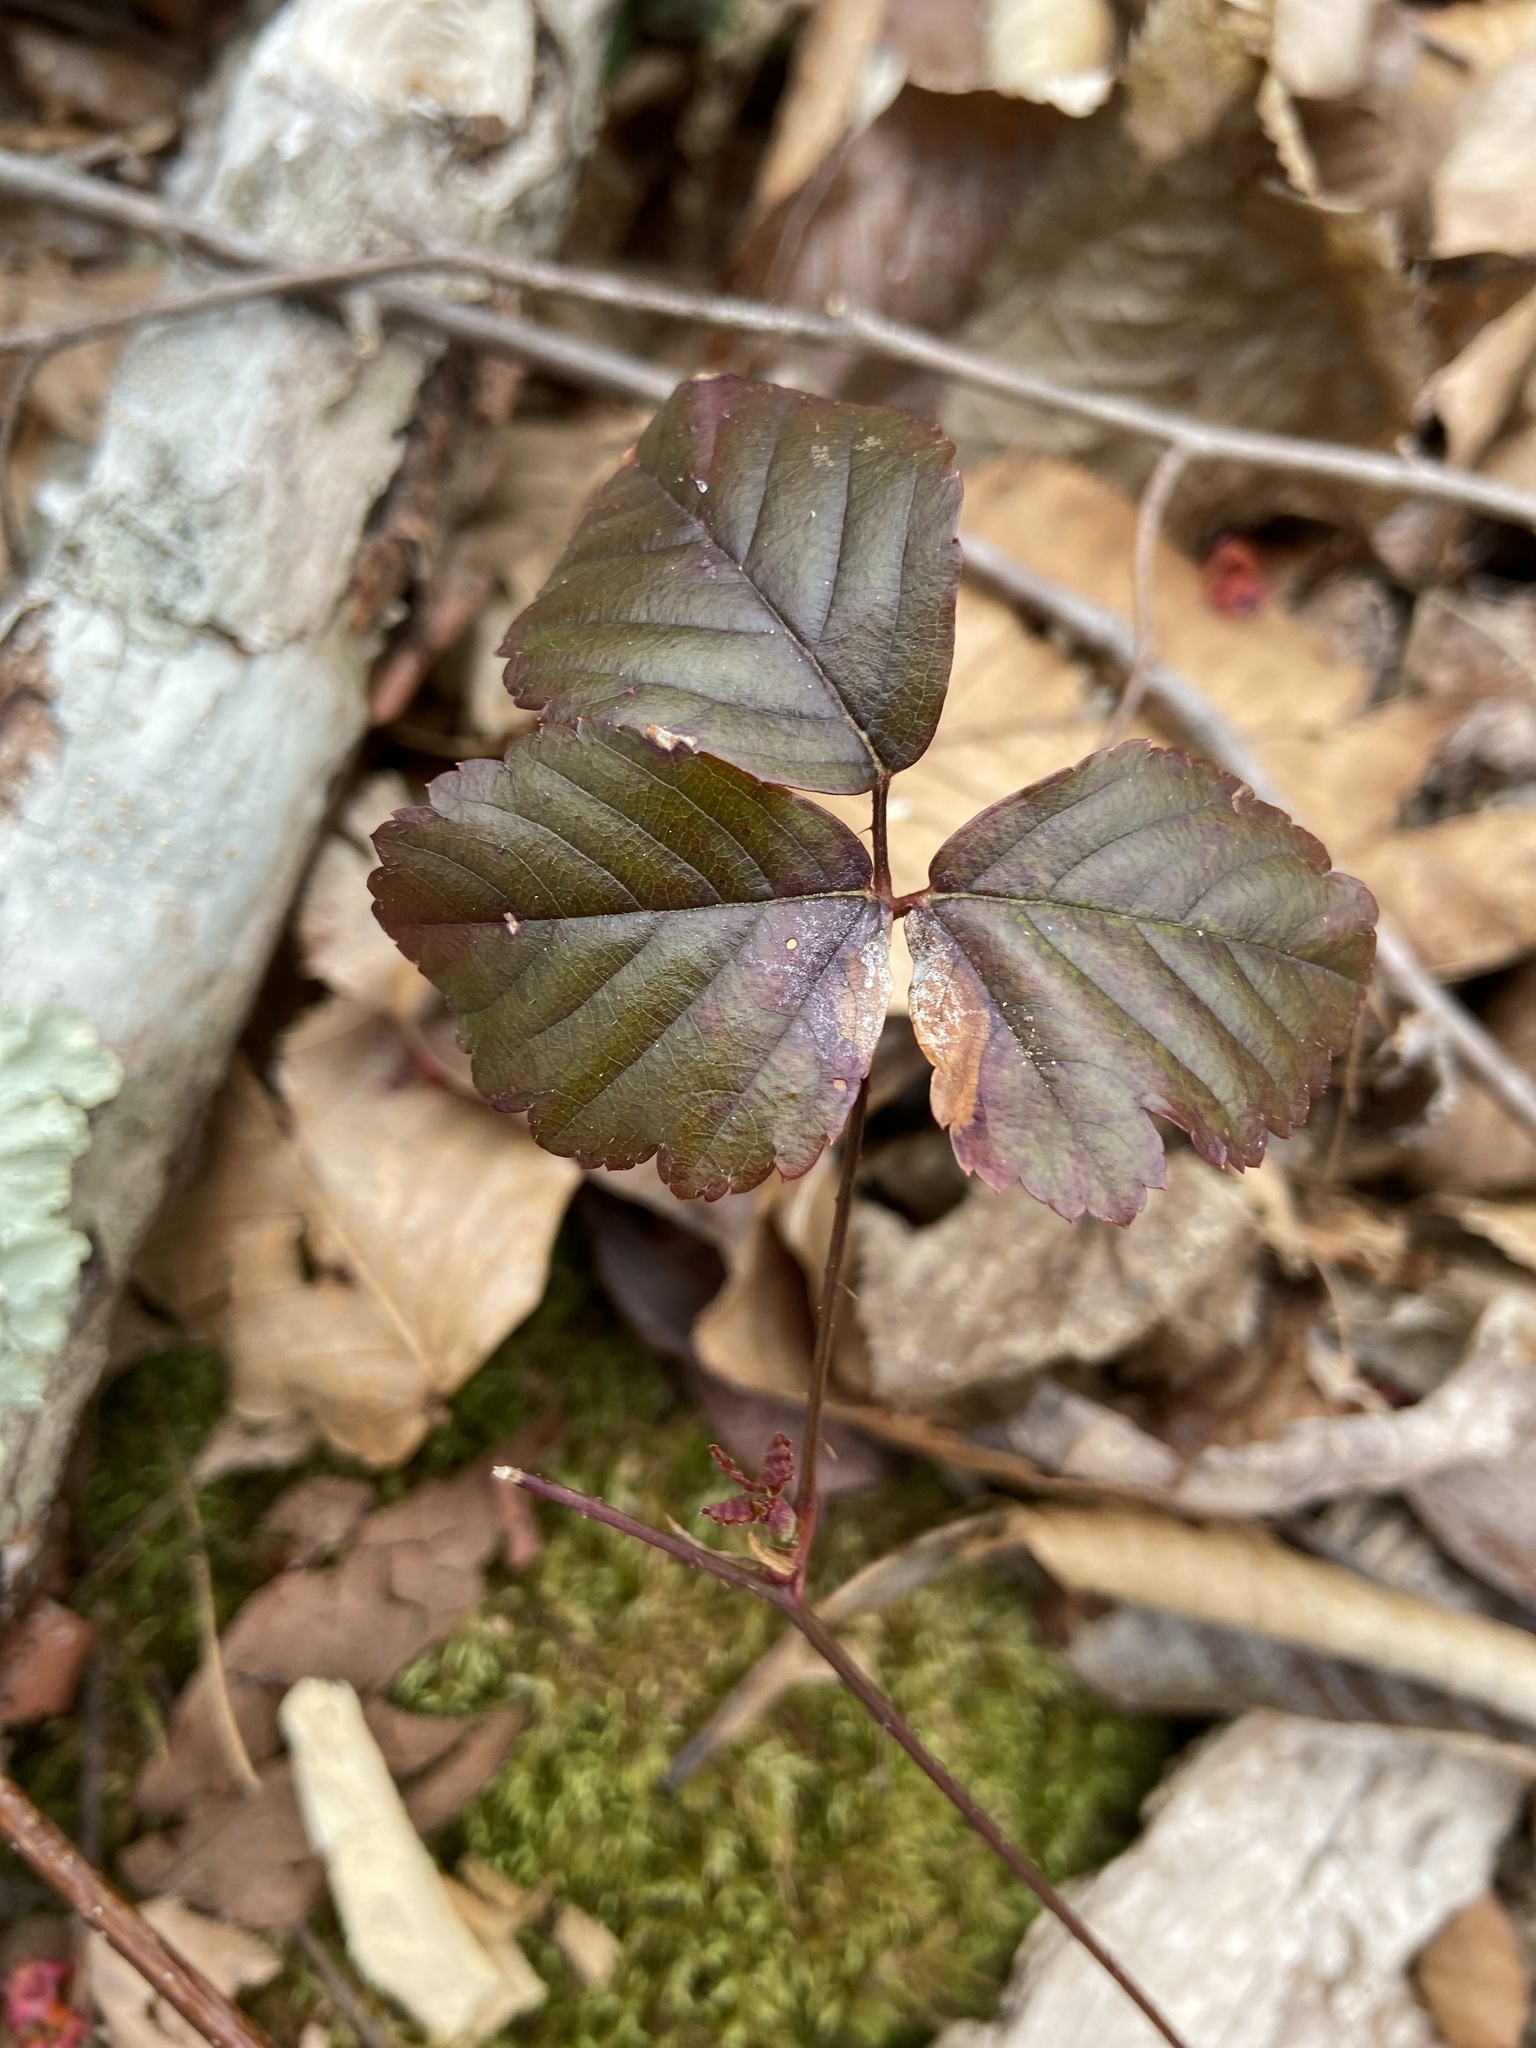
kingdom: Plantae
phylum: Tracheophyta
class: Magnoliopsida
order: Rosales
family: Rosaceae
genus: Rubus
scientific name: Rubus hispidus
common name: Running blackberry
